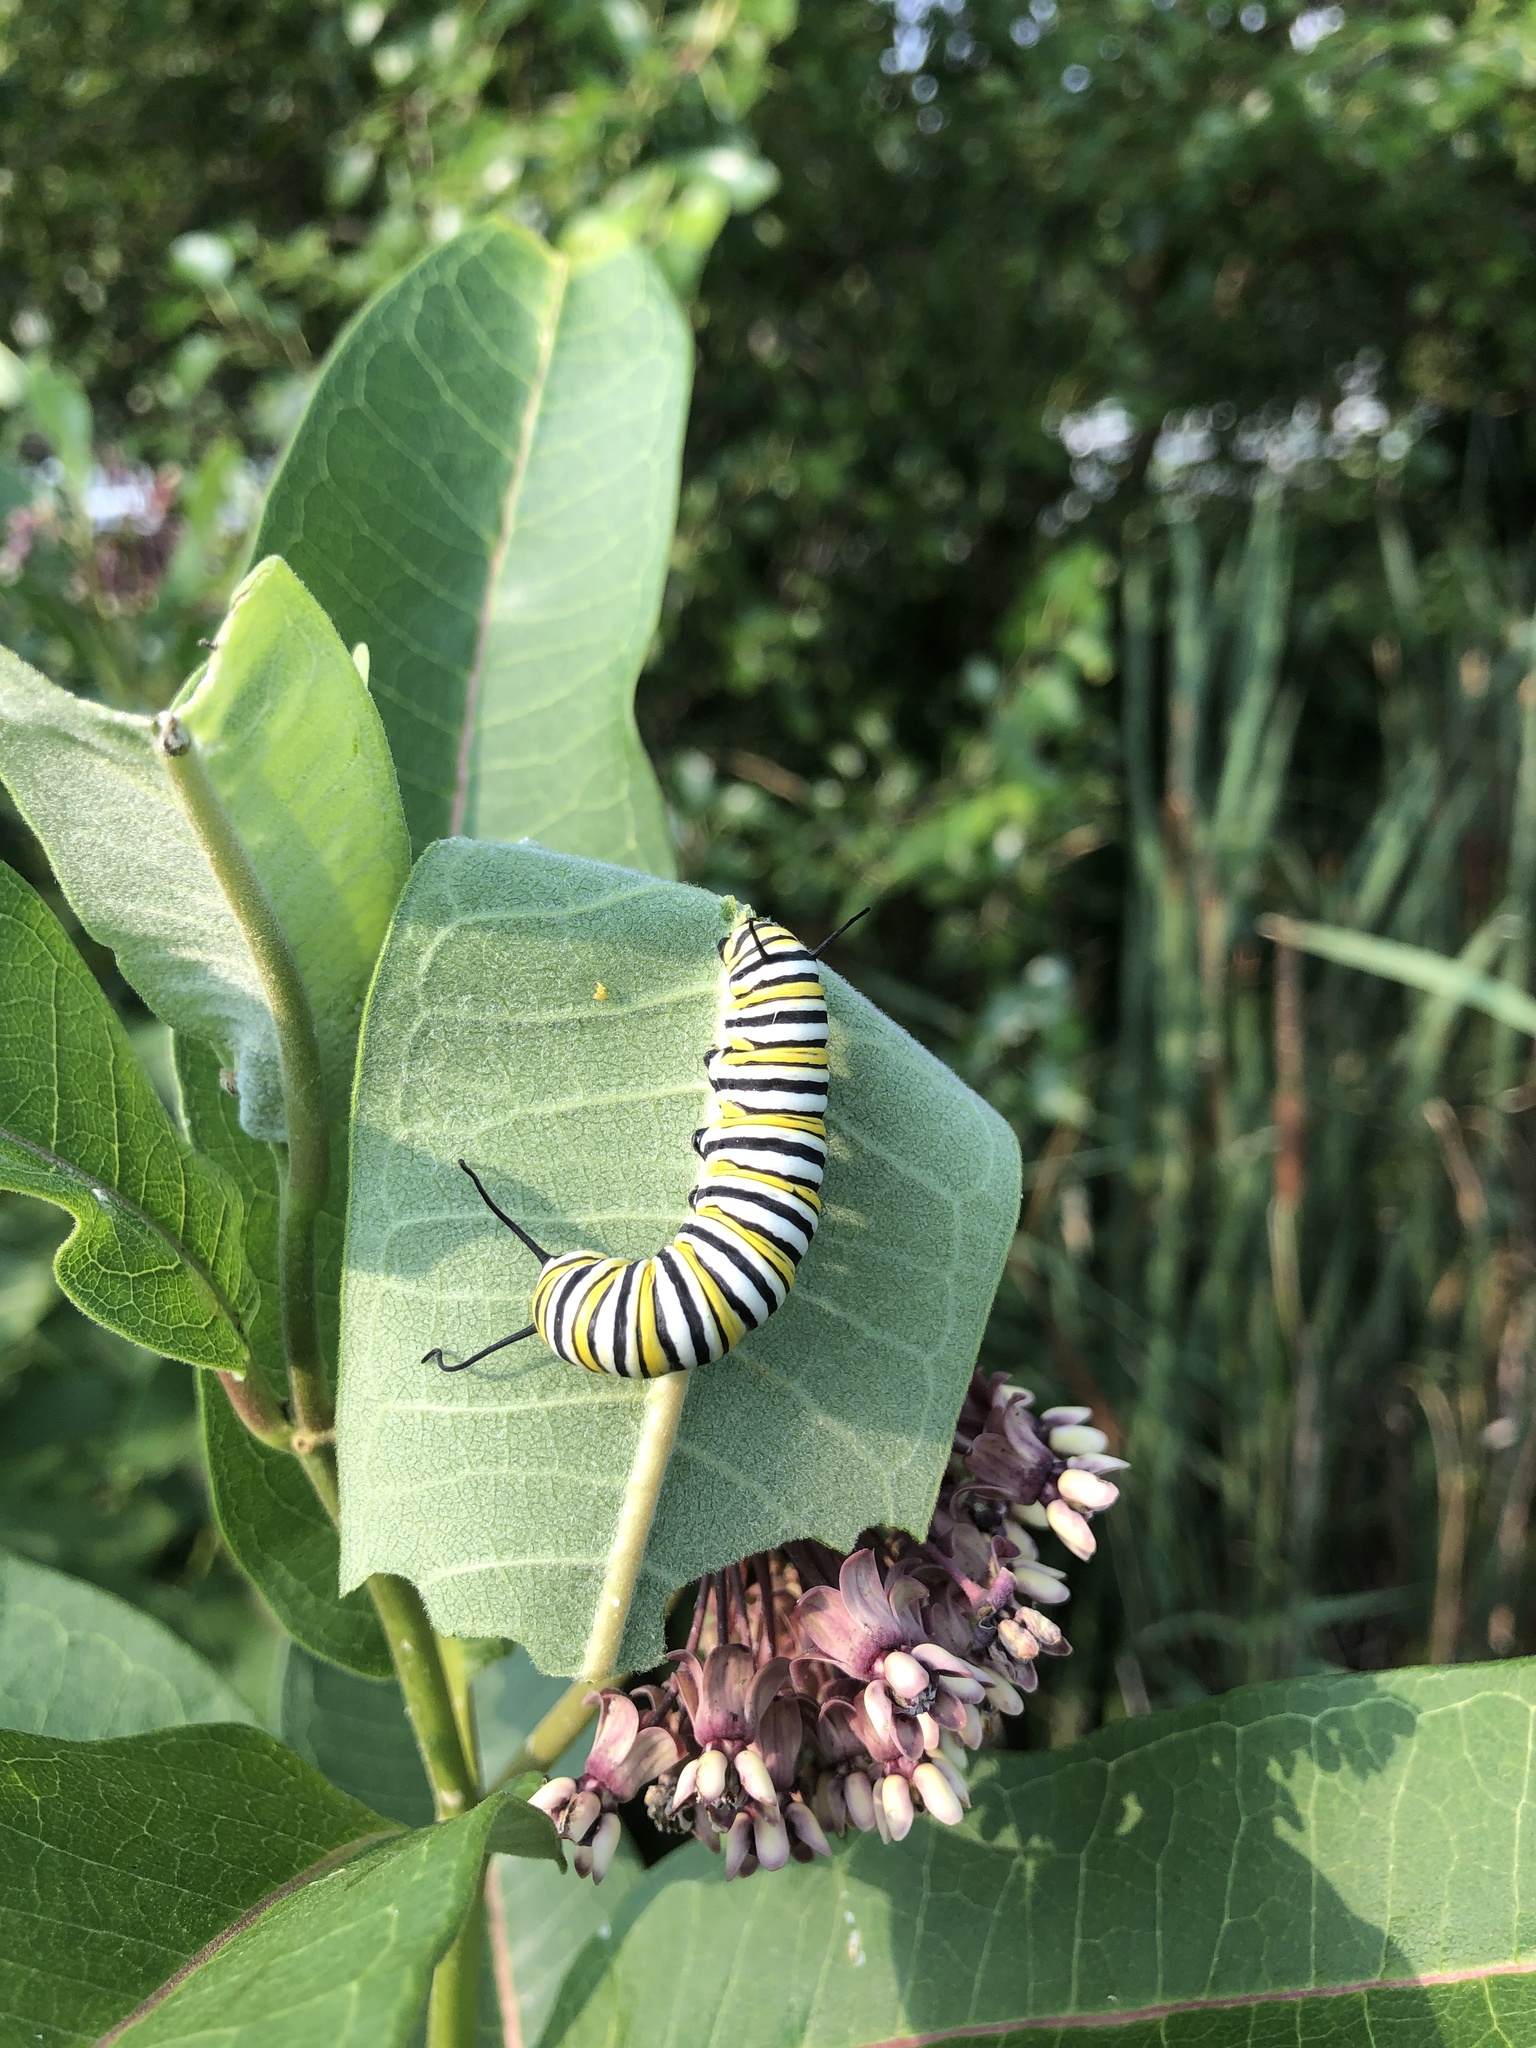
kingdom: Animalia
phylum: Arthropoda
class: Insecta
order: Lepidoptera
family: Nymphalidae
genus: Danaus
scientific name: Danaus plexippus
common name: Monarch
